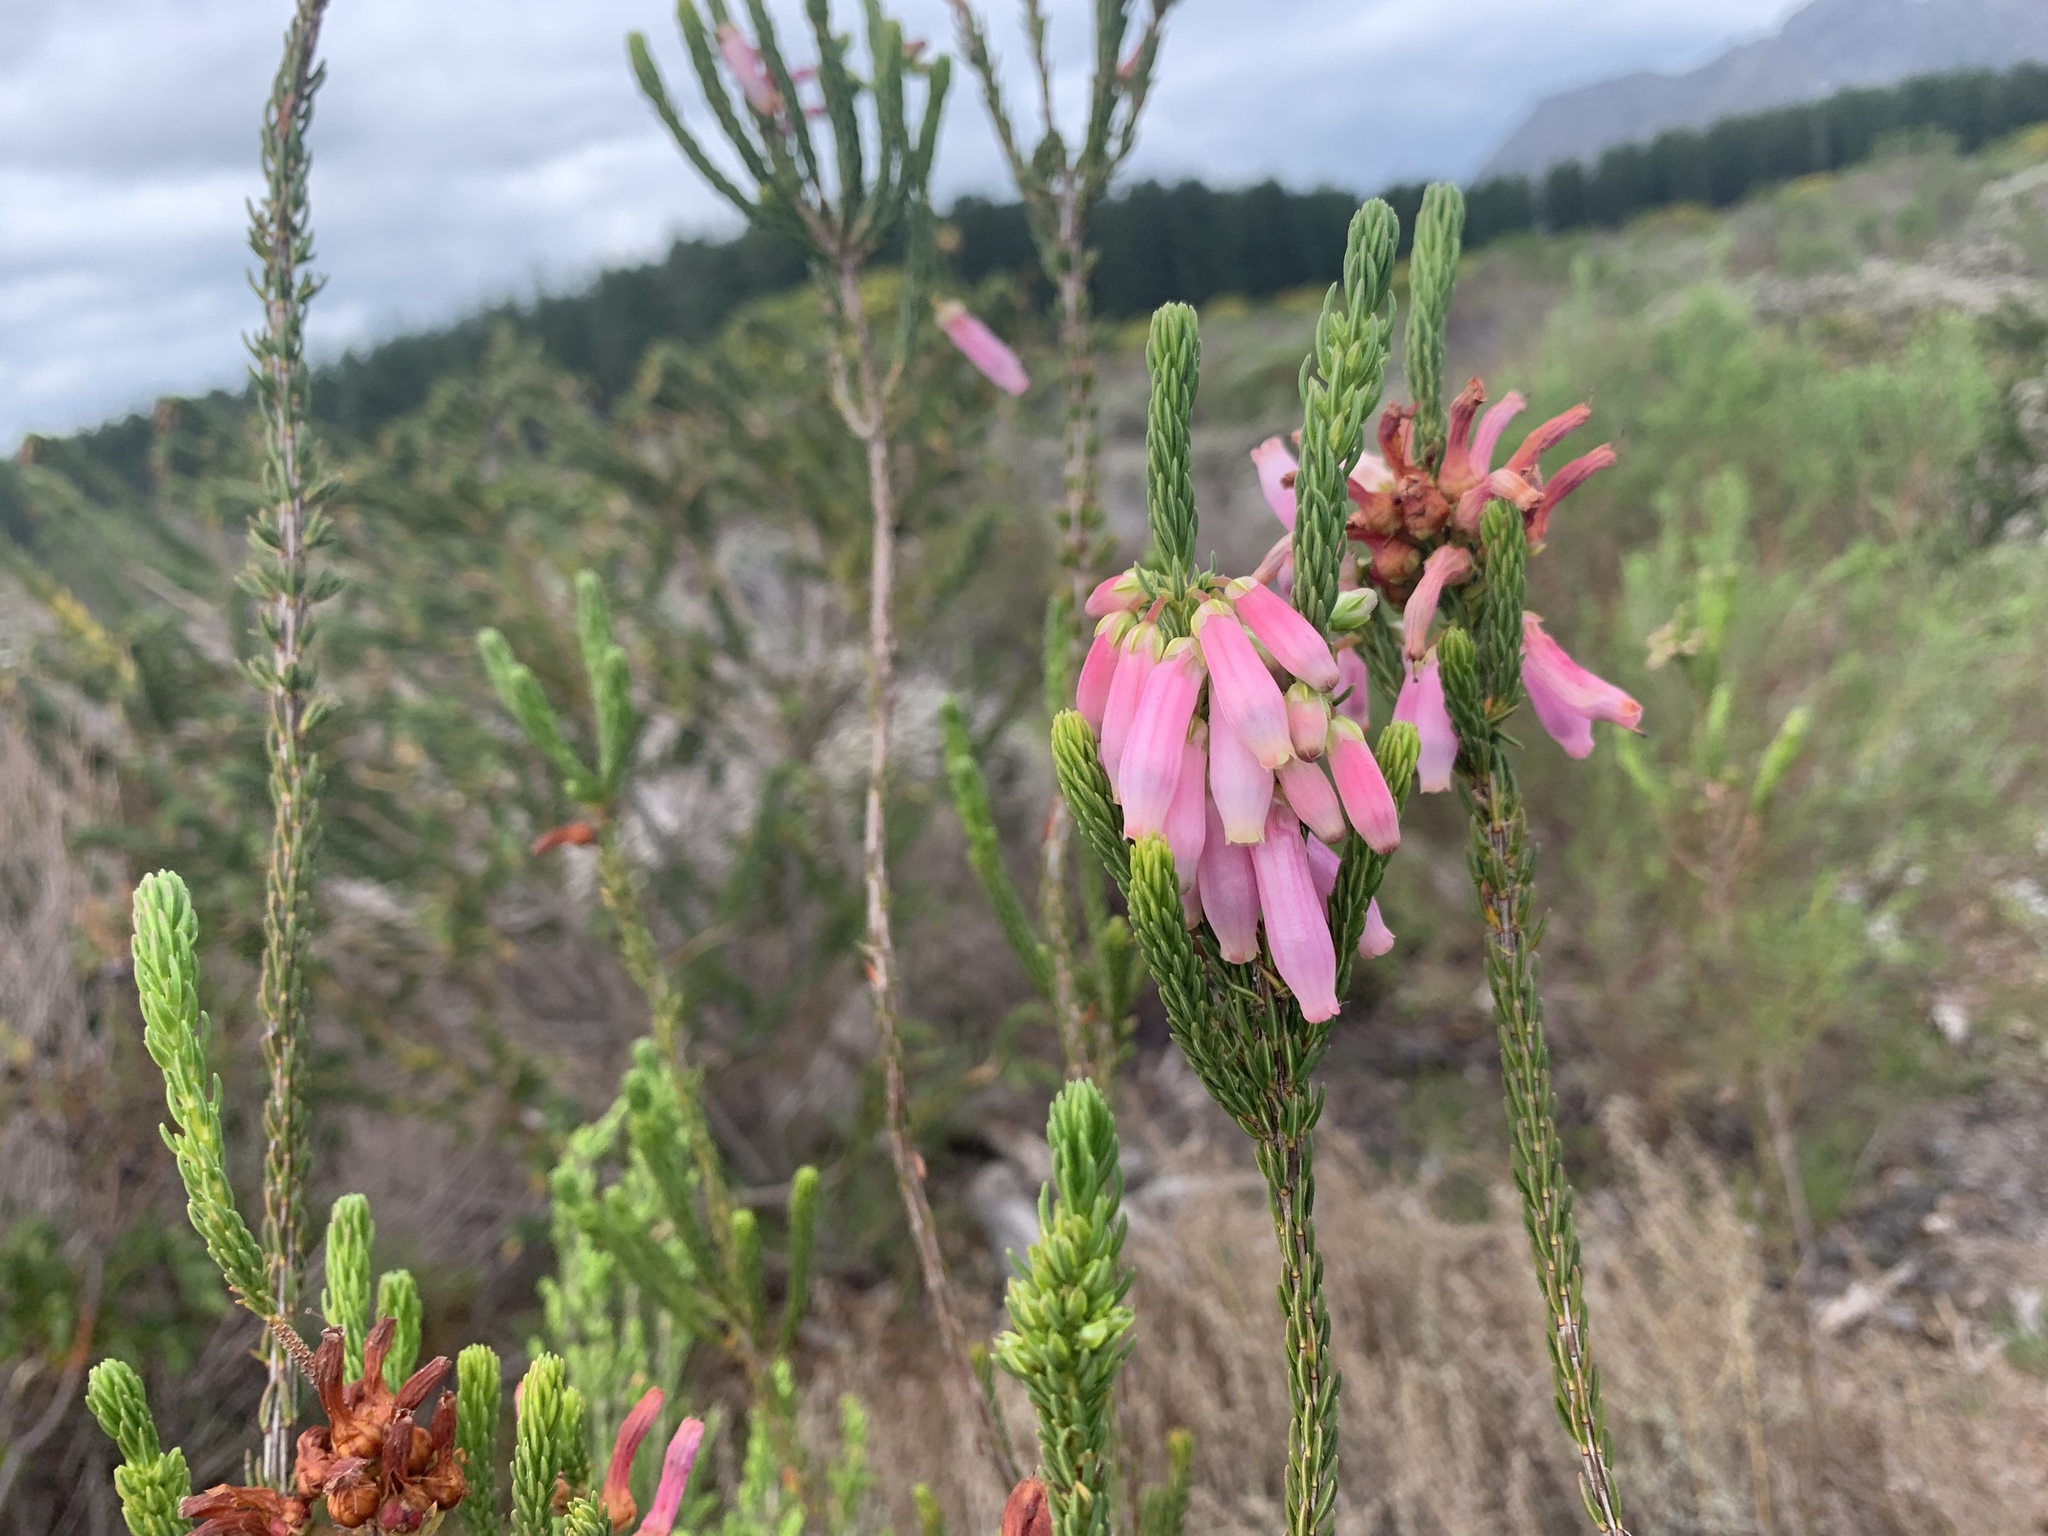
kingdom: Plantae
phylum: Tracheophyta
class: Magnoliopsida
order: Ericales
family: Ericaceae
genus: Erica
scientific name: Erica mammosa
